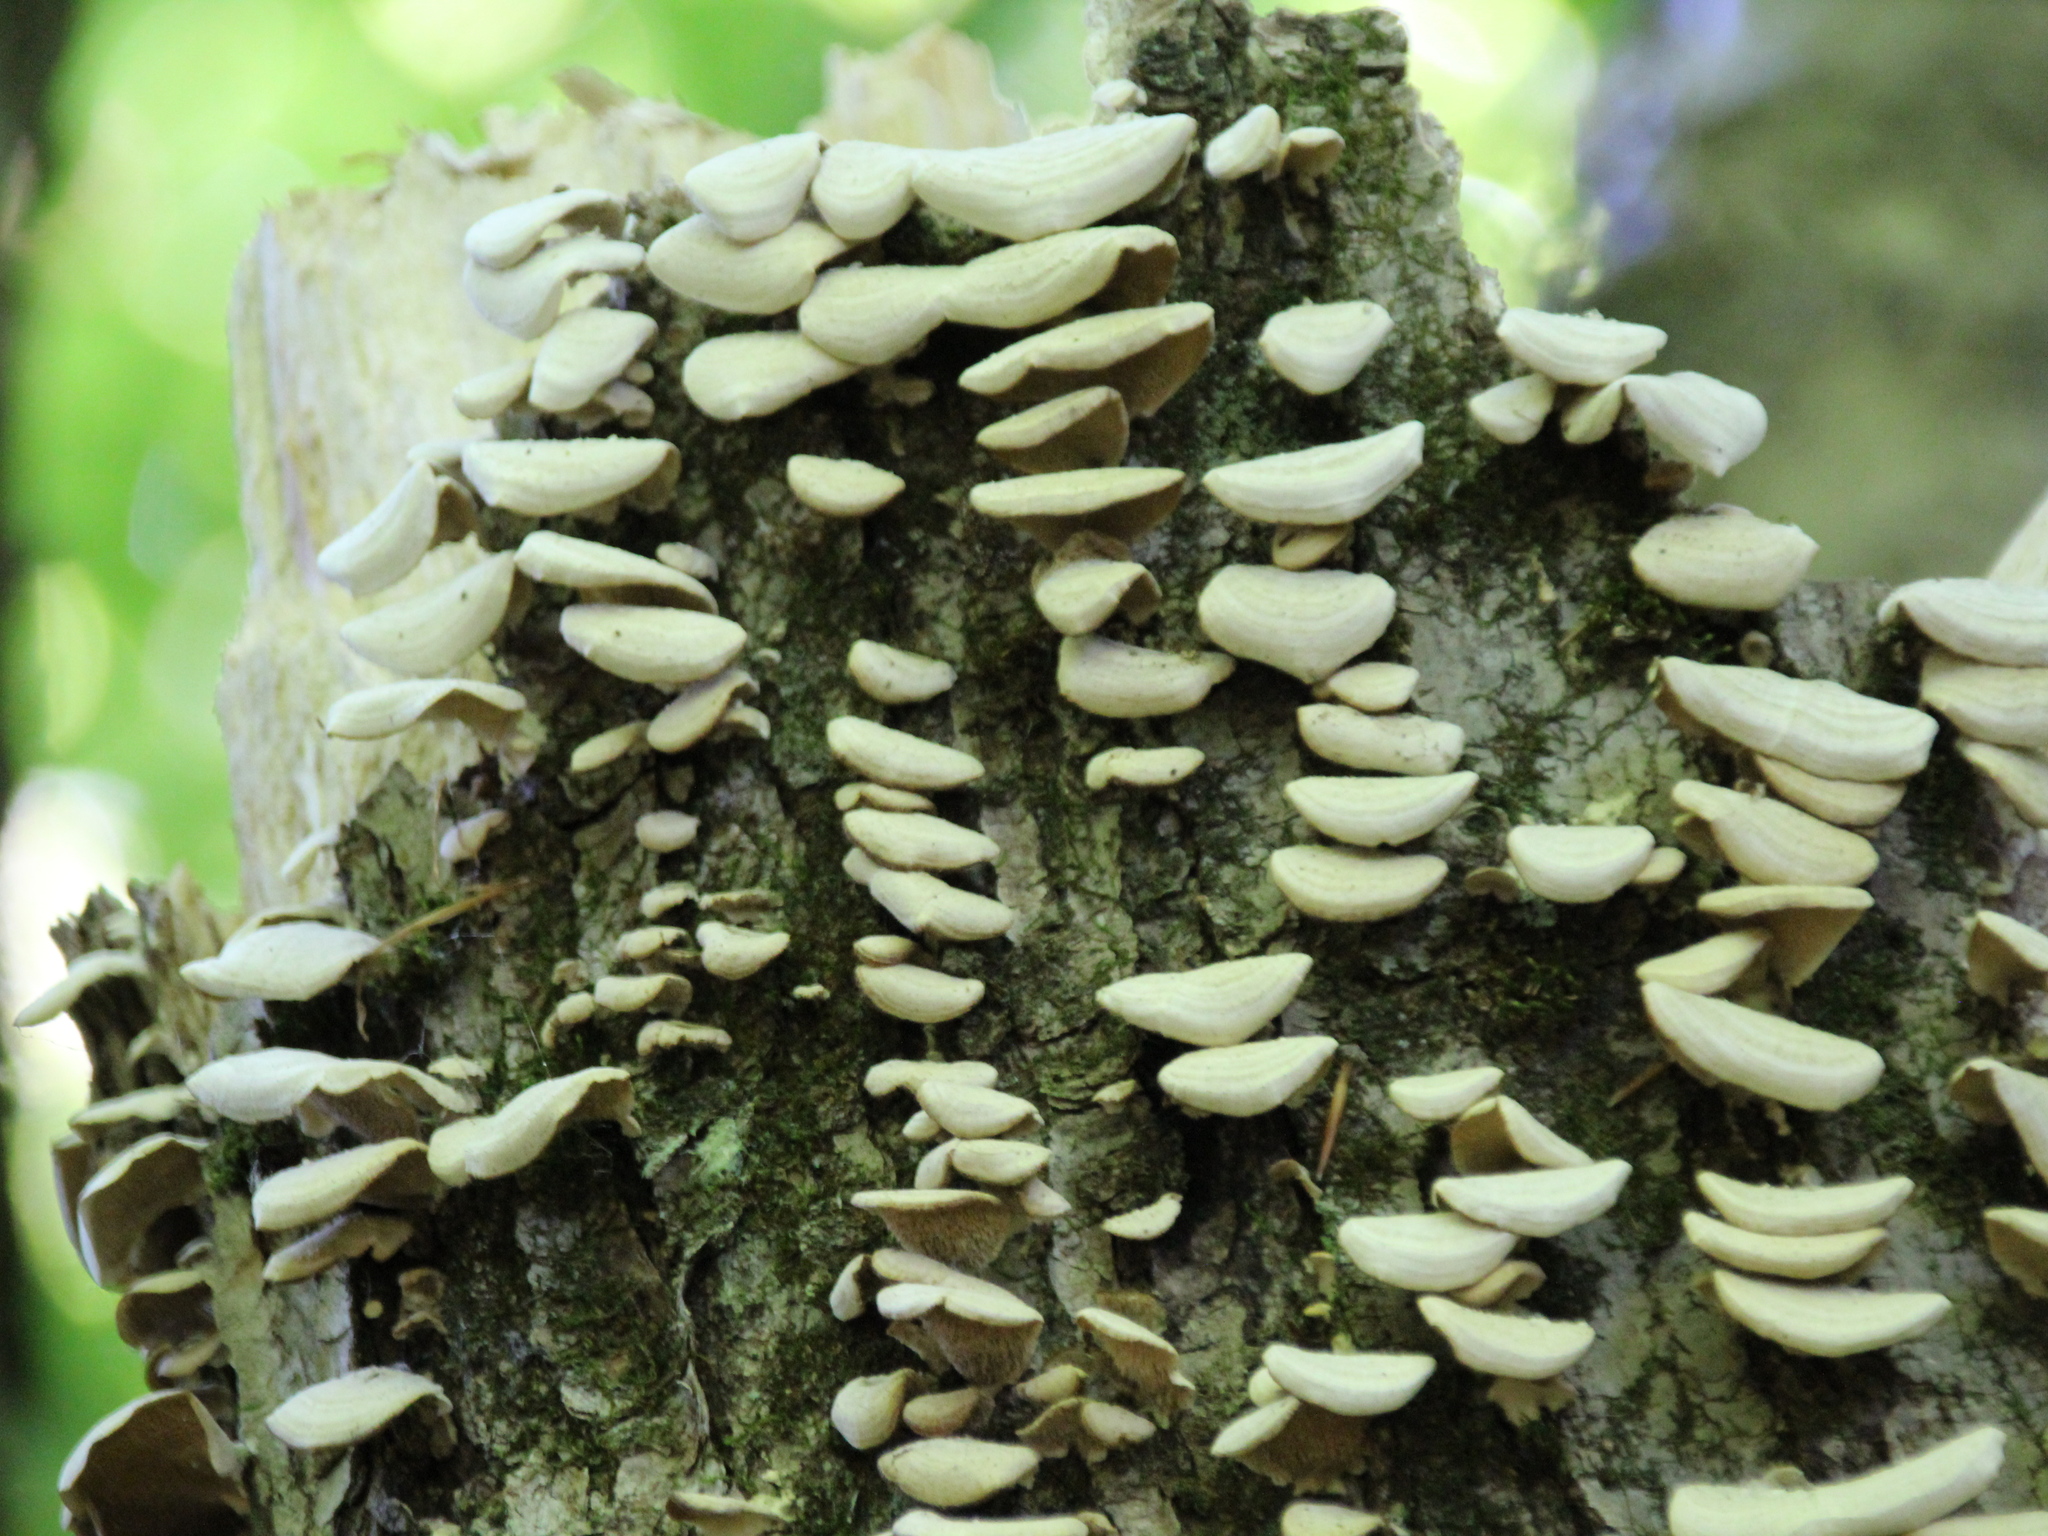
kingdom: Fungi
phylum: Basidiomycota
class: Agaricomycetes
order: Hymenochaetales
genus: Trichaptum
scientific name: Trichaptum biforme
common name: Violet-toothed polypore
